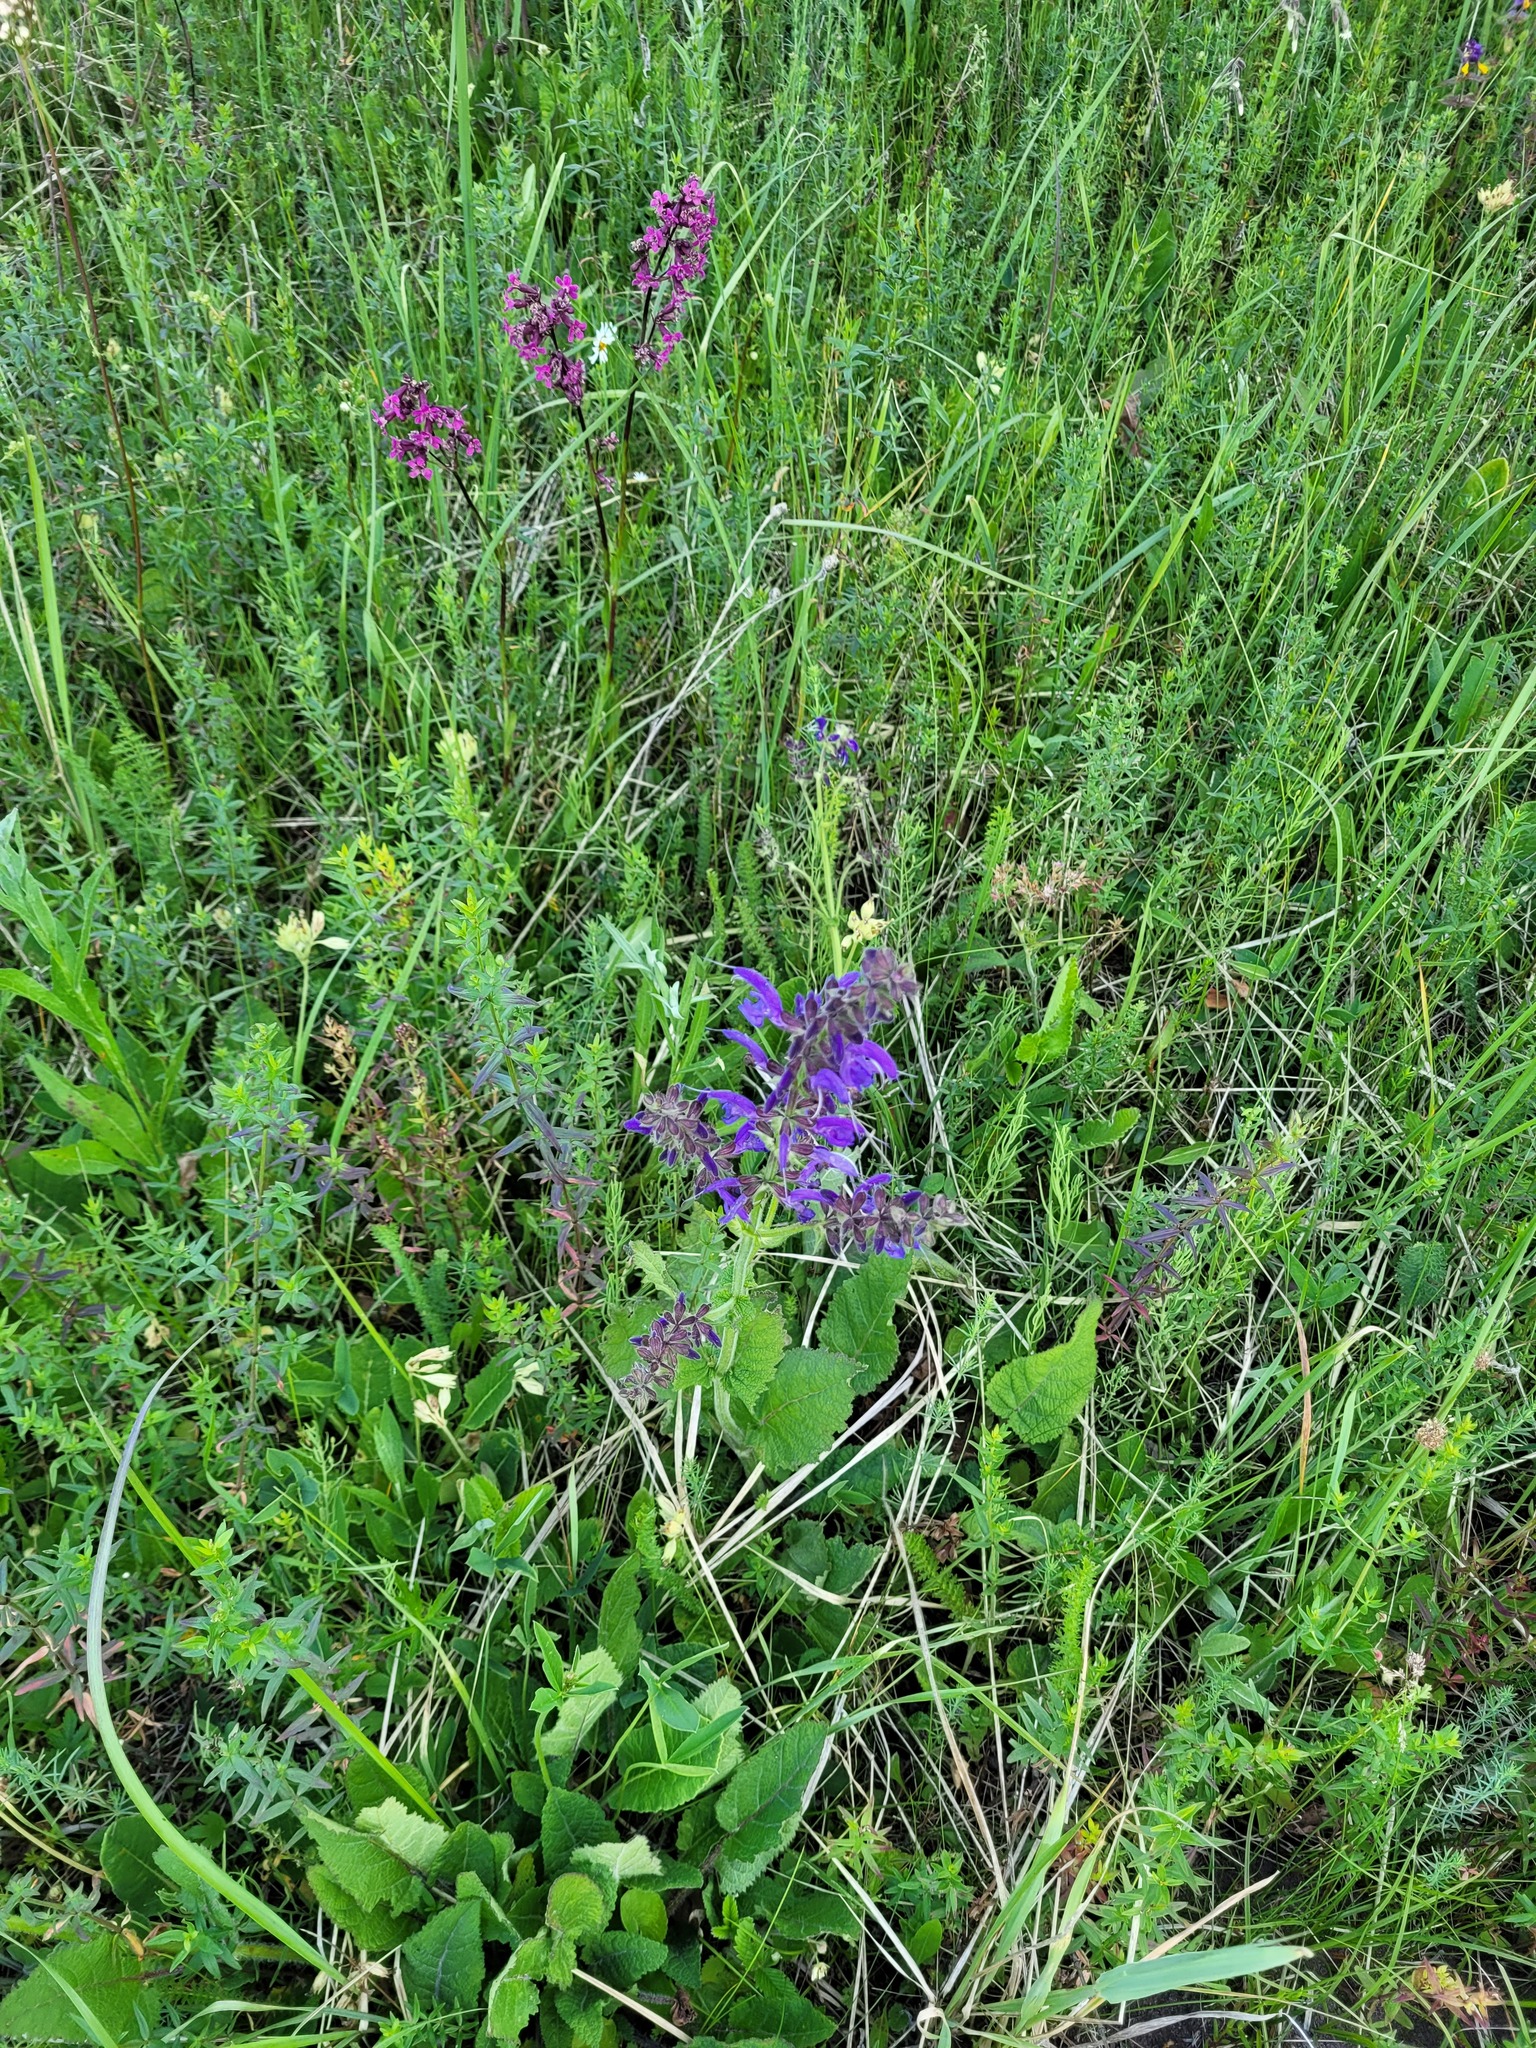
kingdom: Plantae
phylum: Tracheophyta
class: Magnoliopsida
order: Lamiales
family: Lamiaceae
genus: Salvia
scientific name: Salvia pratensis
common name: Meadow sage
